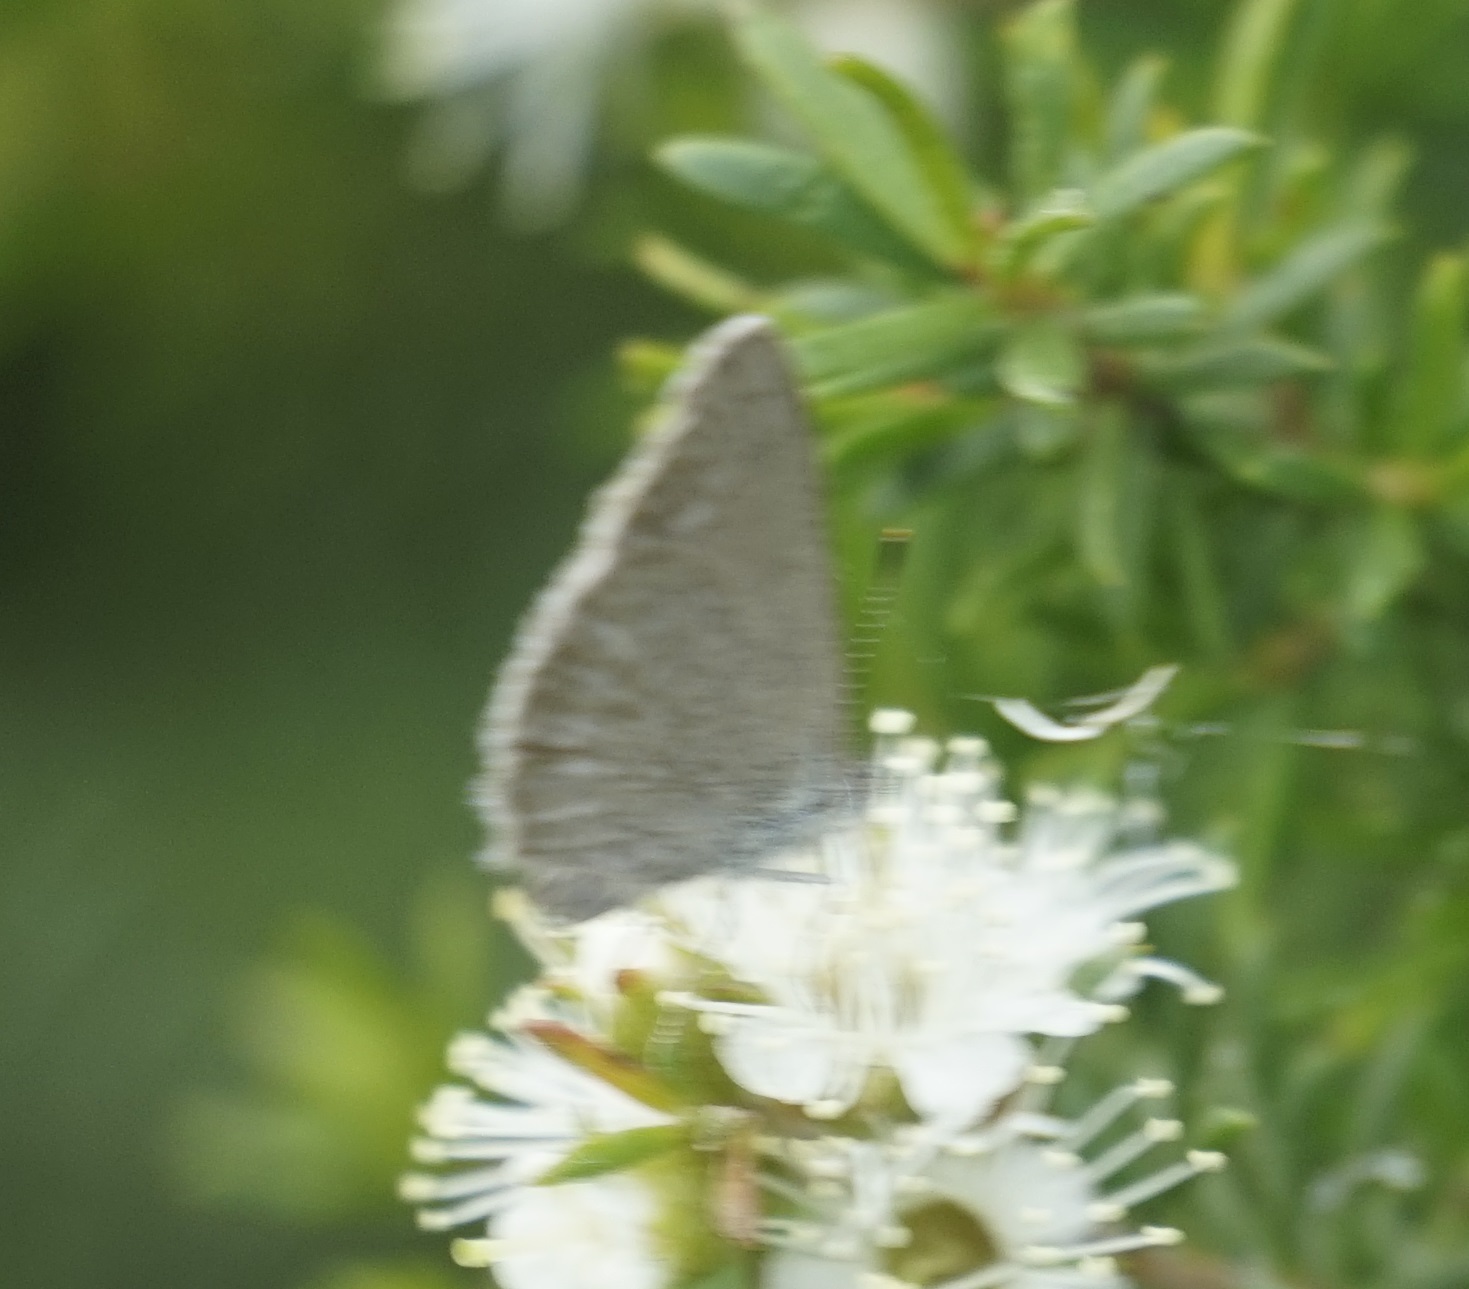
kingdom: Animalia
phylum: Arthropoda
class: Insecta
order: Lepidoptera
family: Lycaenidae
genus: Zizina
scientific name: Zizina labradus
